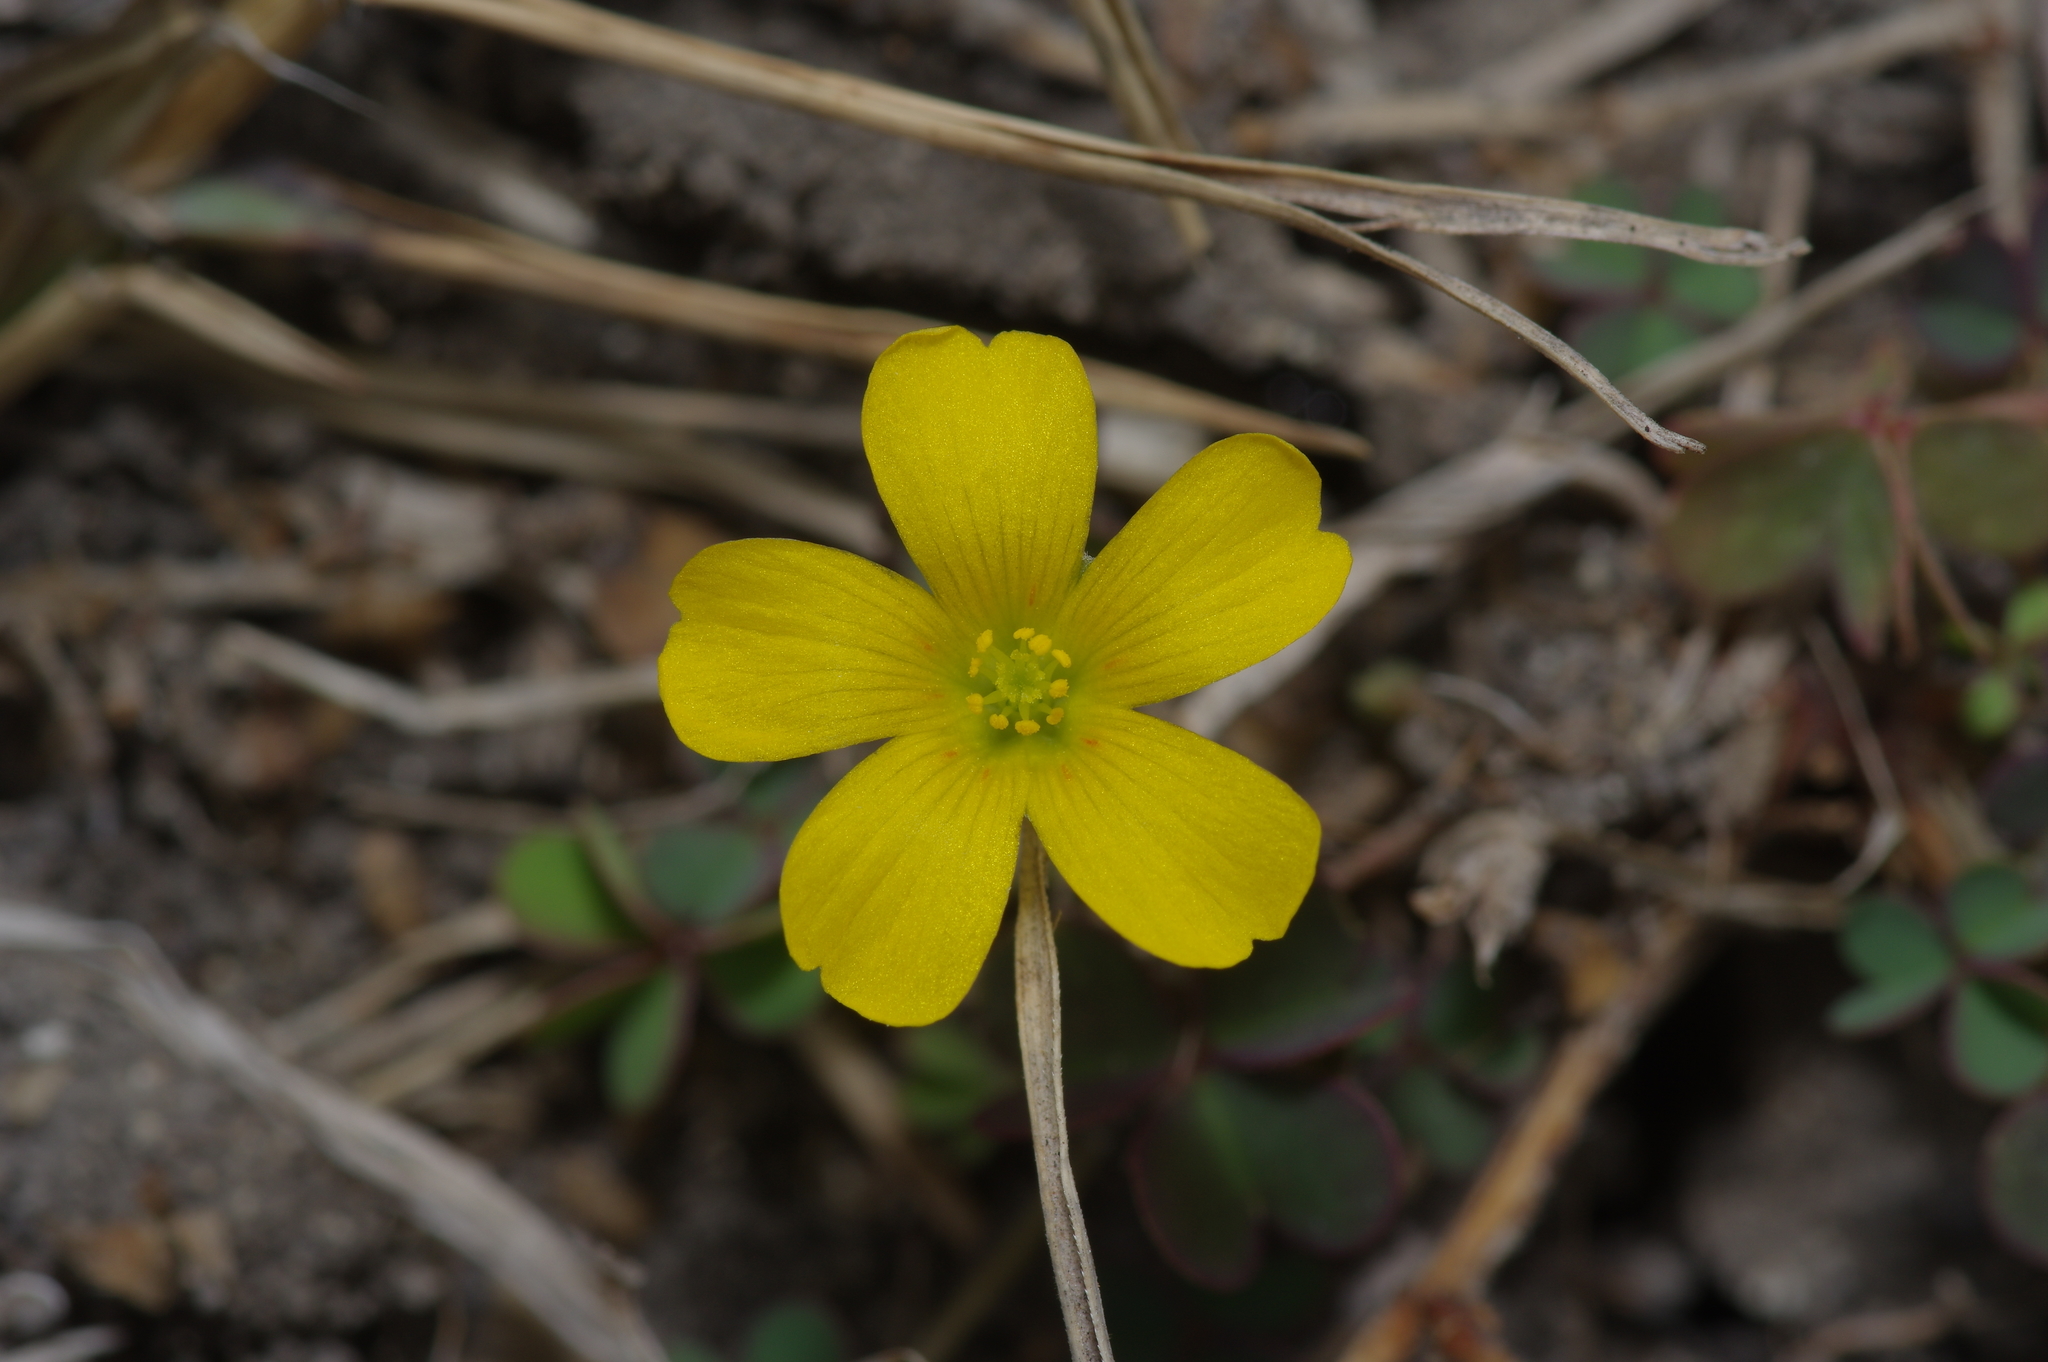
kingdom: Plantae
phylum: Tracheophyta
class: Magnoliopsida
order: Oxalidales
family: Oxalidaceae
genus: Oxalis
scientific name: Oxalis corniculata
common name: Procumbent yellow-sorrel
